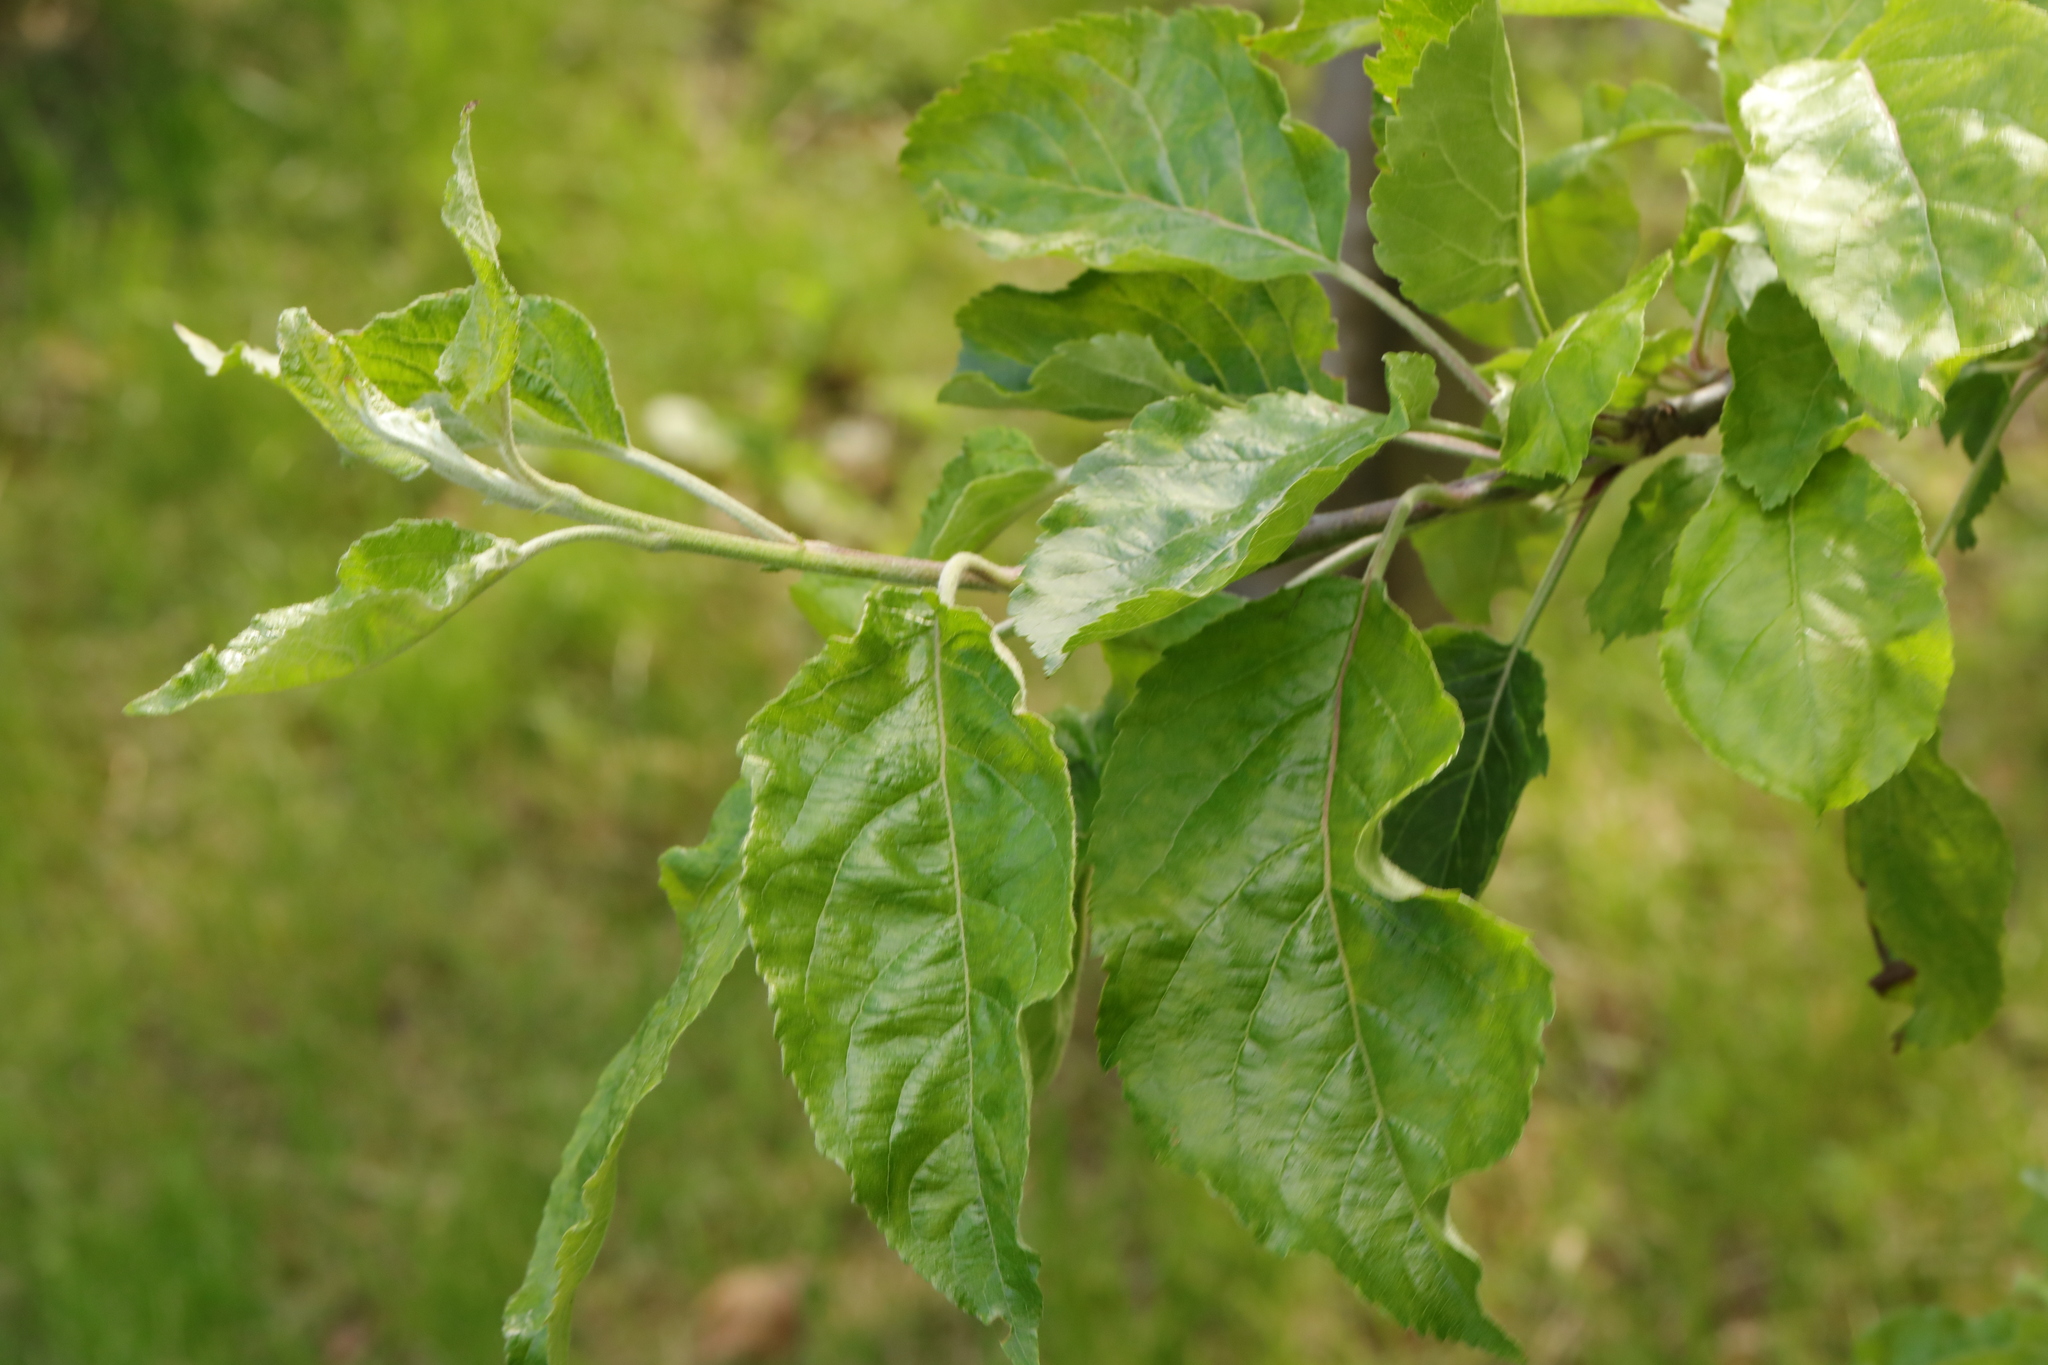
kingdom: Plantae
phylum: Tracheophyta
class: Magnoliopsida
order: Rosales
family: Rosaceae
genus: Malus
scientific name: Malus domestica
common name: Apple
